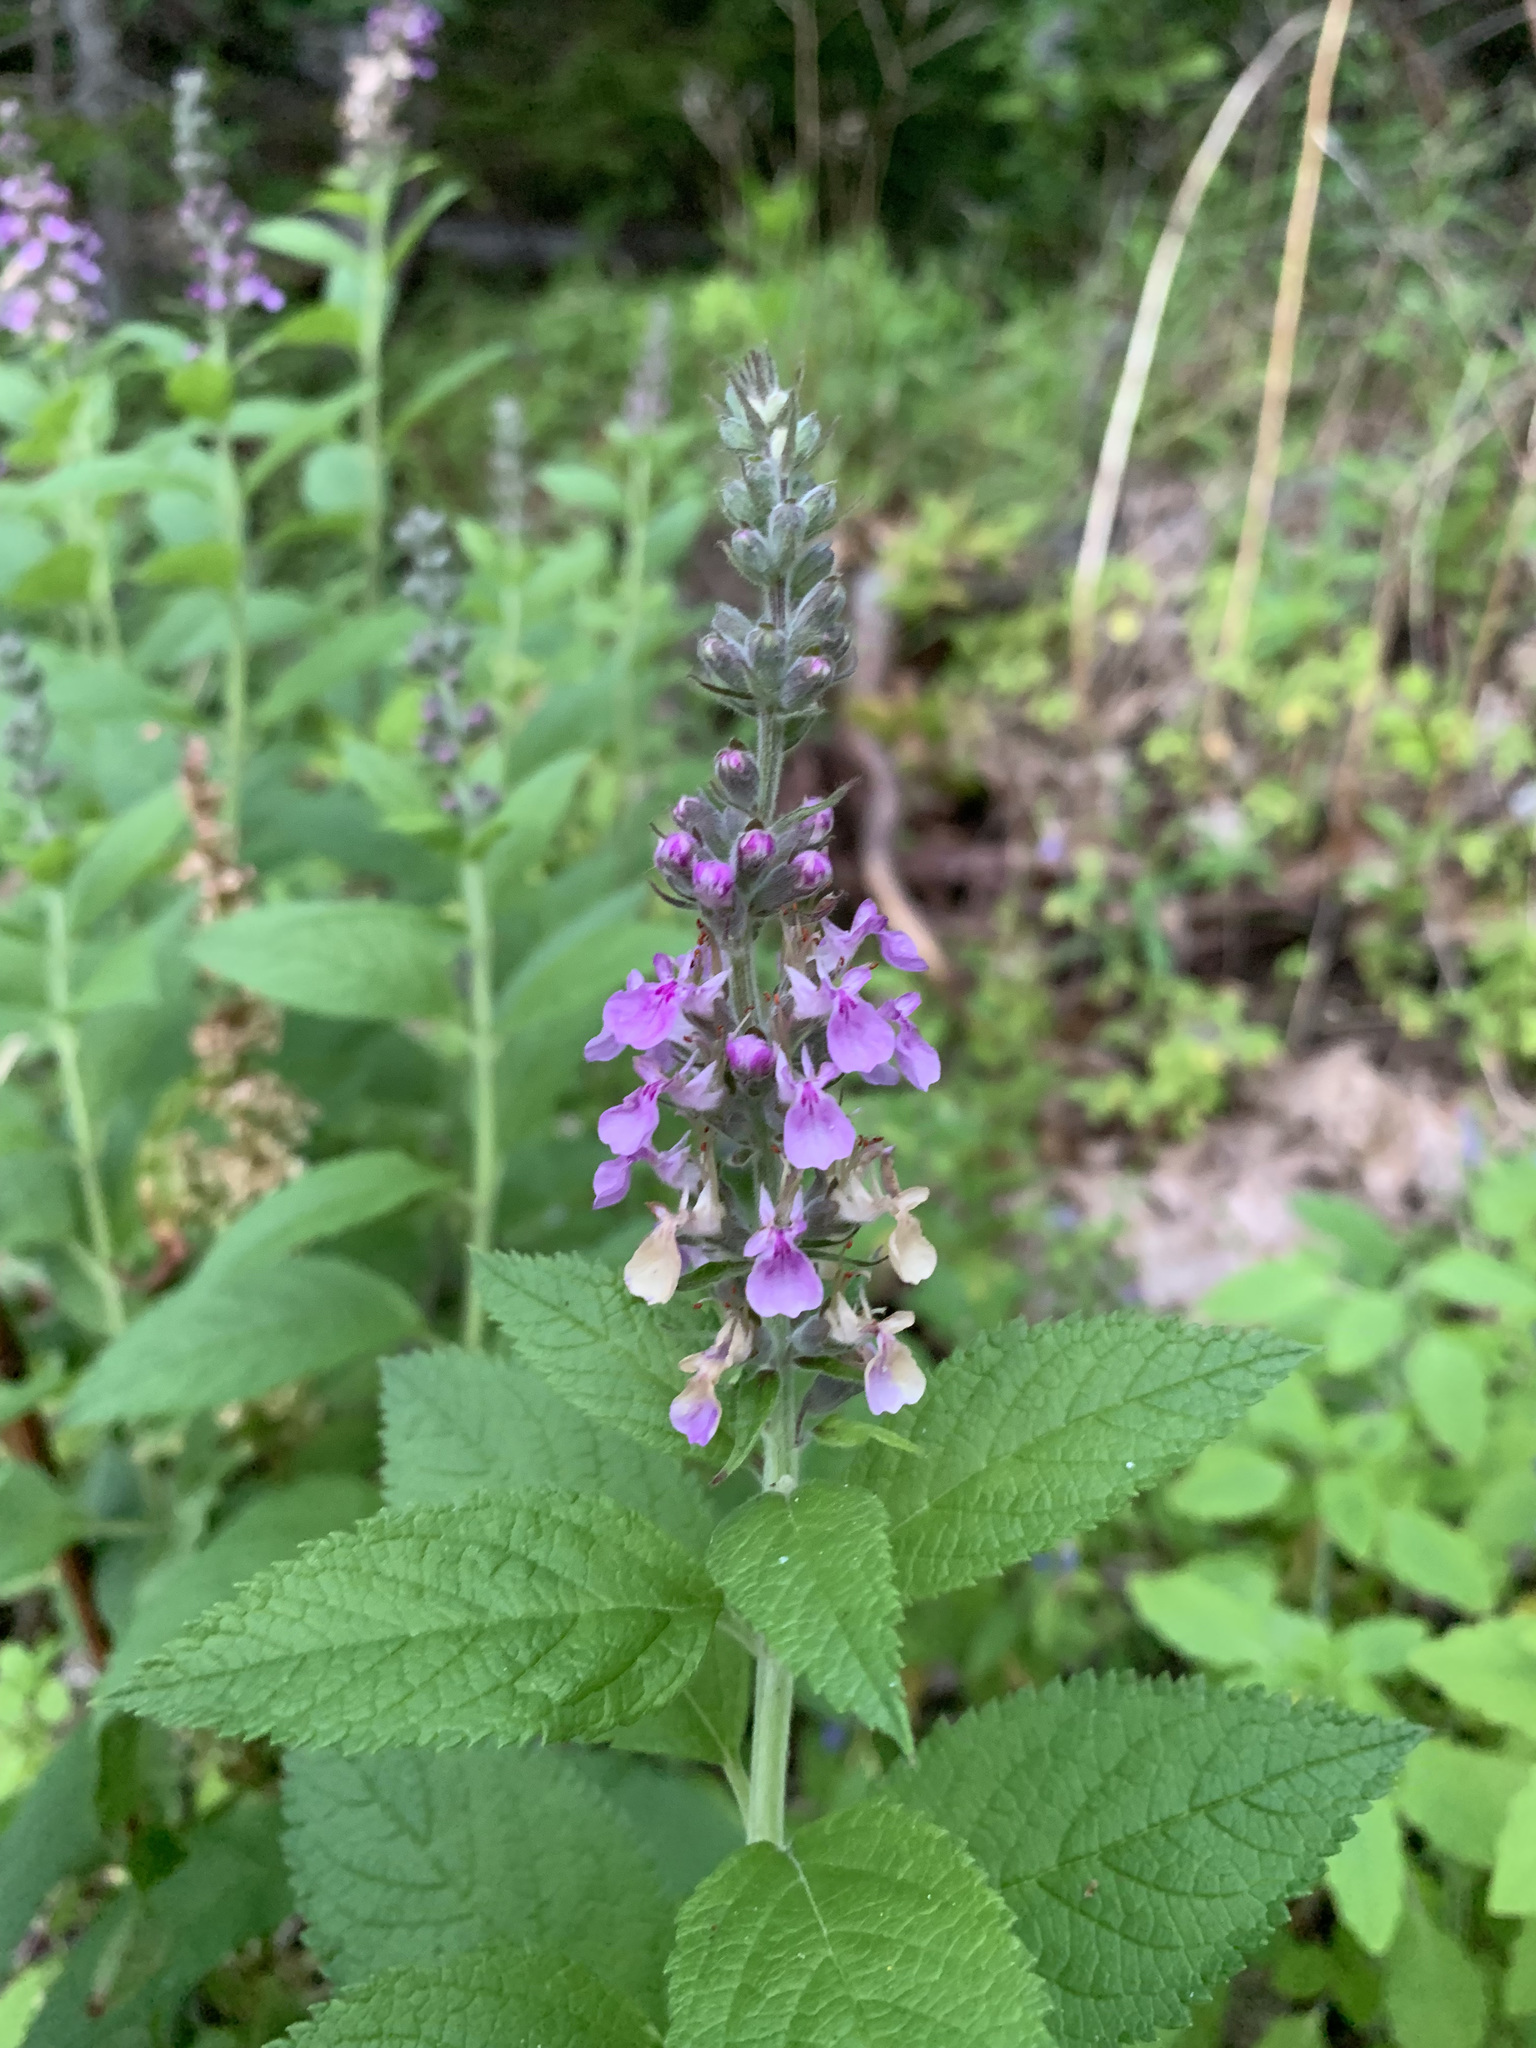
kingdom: Plantae
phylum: Tracheophyta
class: Magnoliopsida
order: Lamiales
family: Lamiaceae
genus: Teucrium
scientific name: Teucrium canadense
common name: American germander
